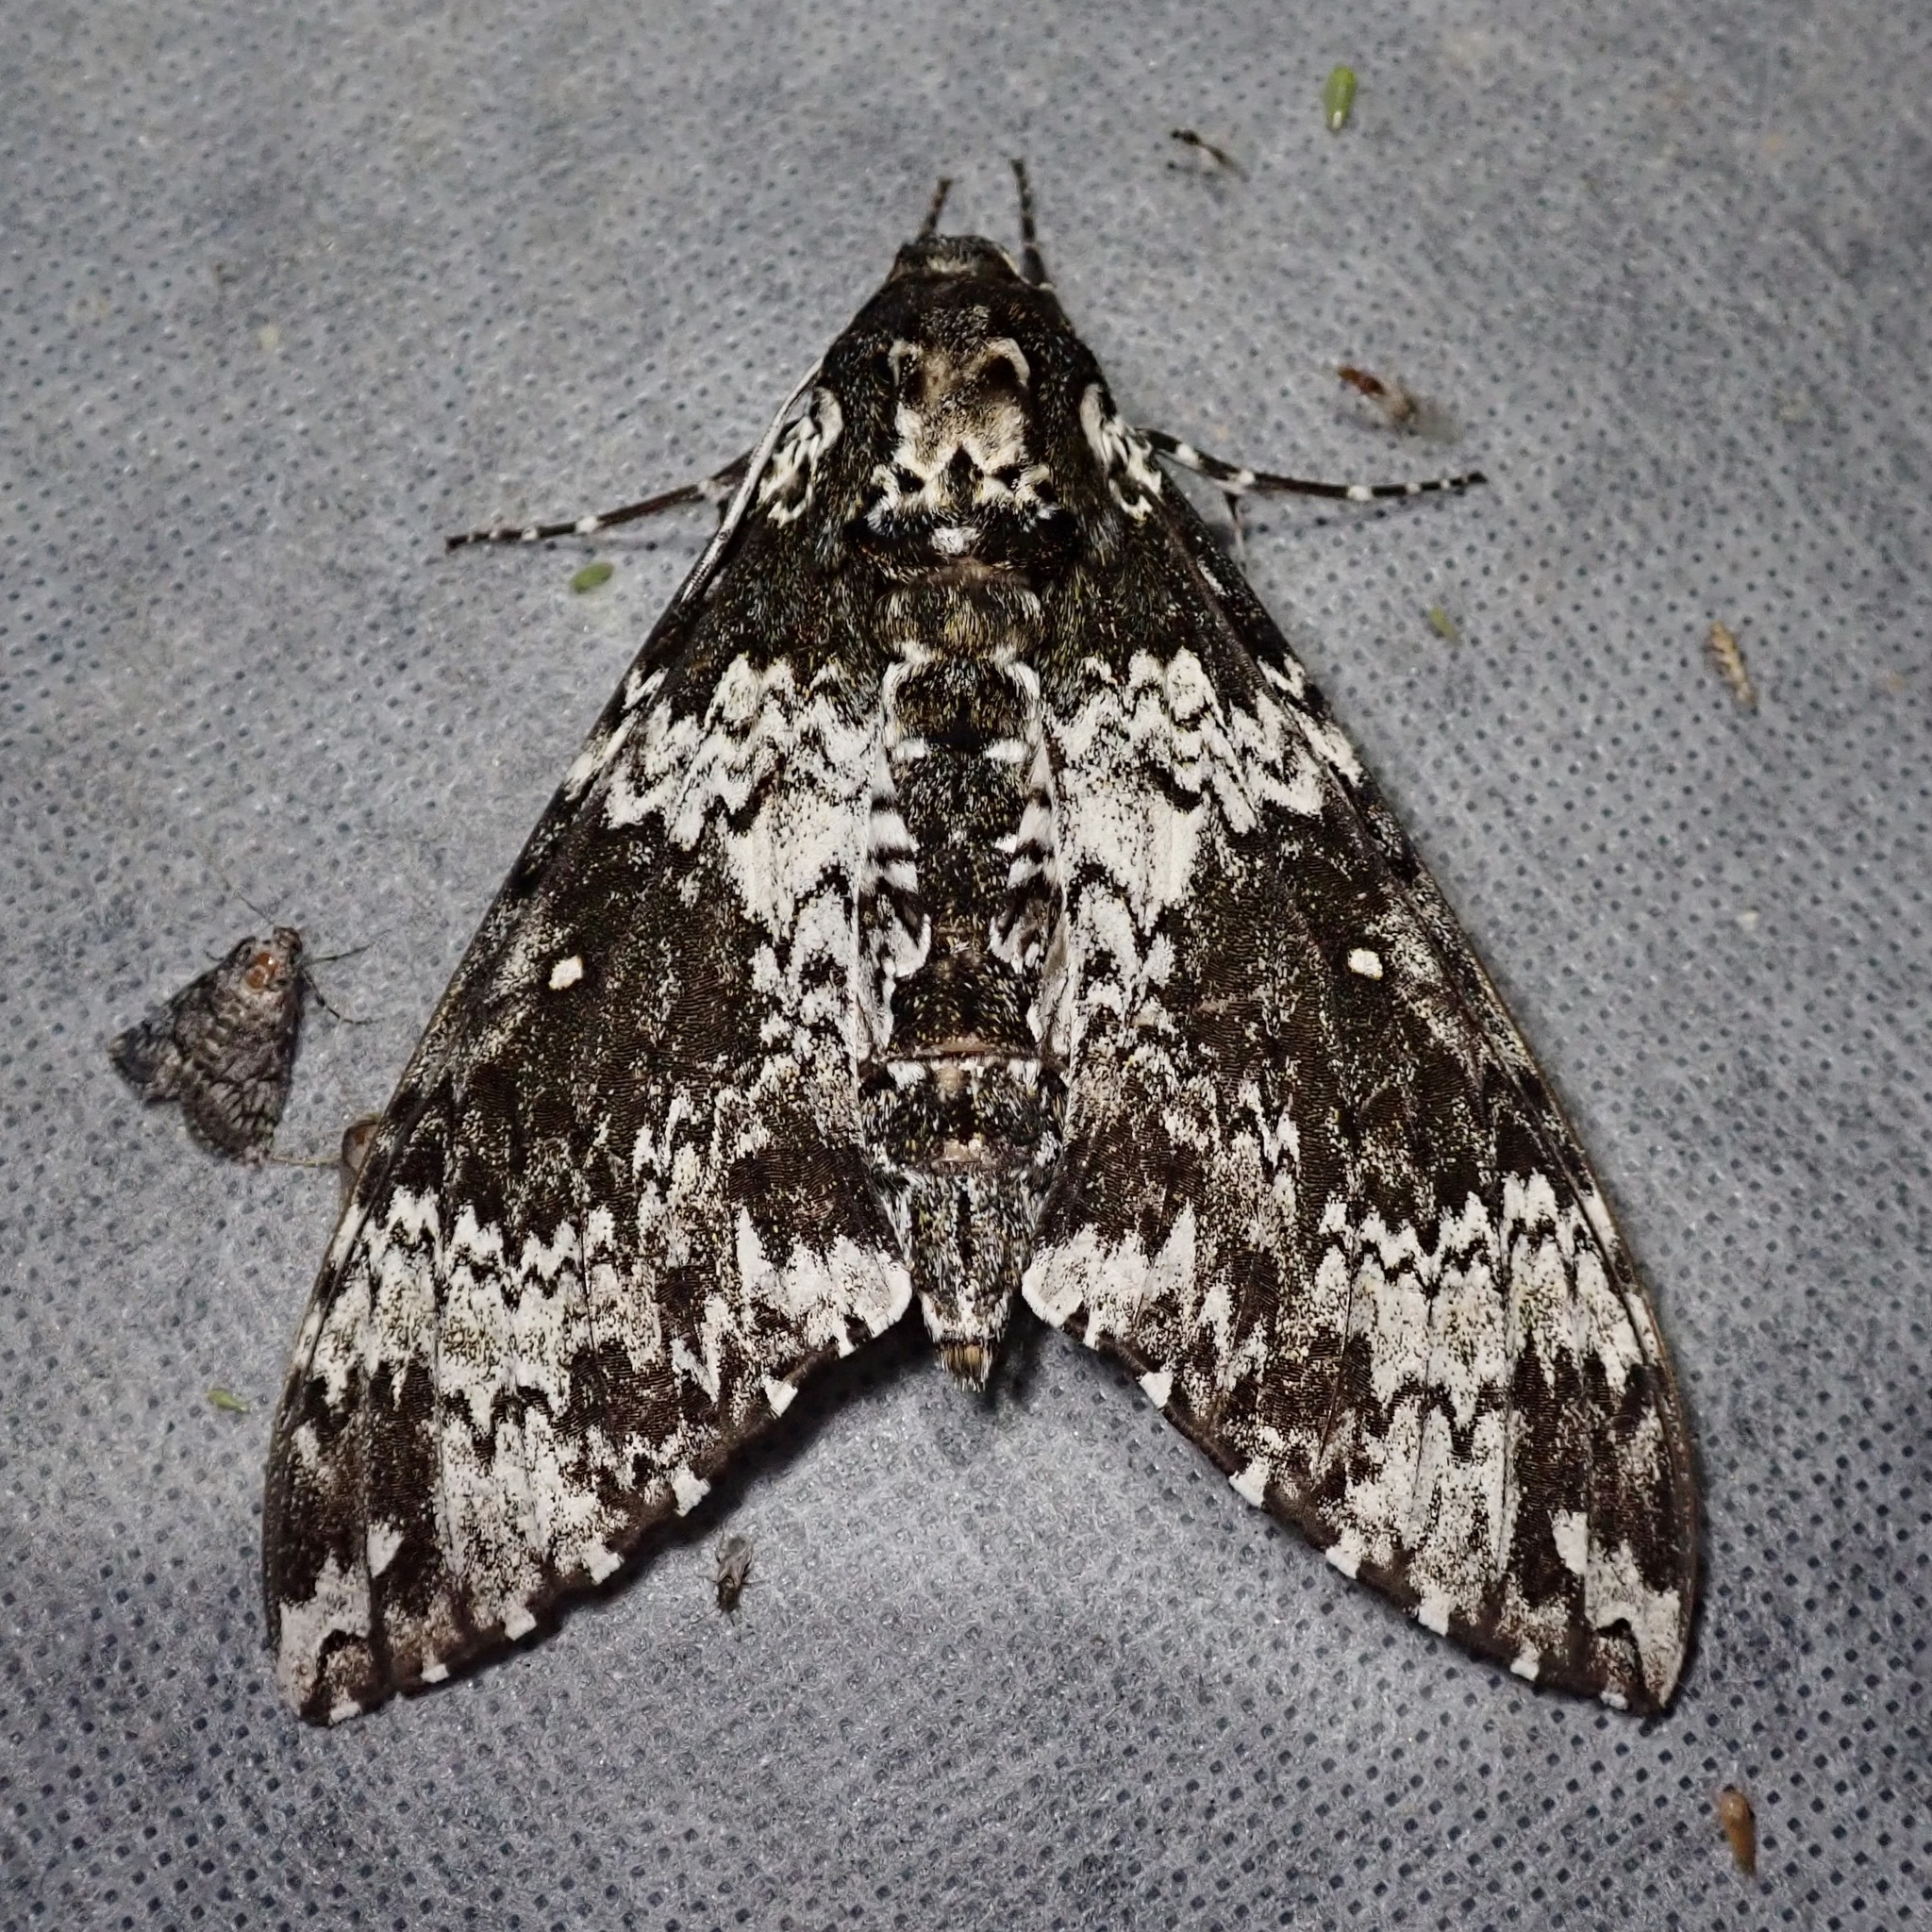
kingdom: Animalia
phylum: Arthropoda
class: Insecta
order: Lepidoptera
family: Sphingidae
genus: Manduca
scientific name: Manduca rustica
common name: Rustic sphinx
